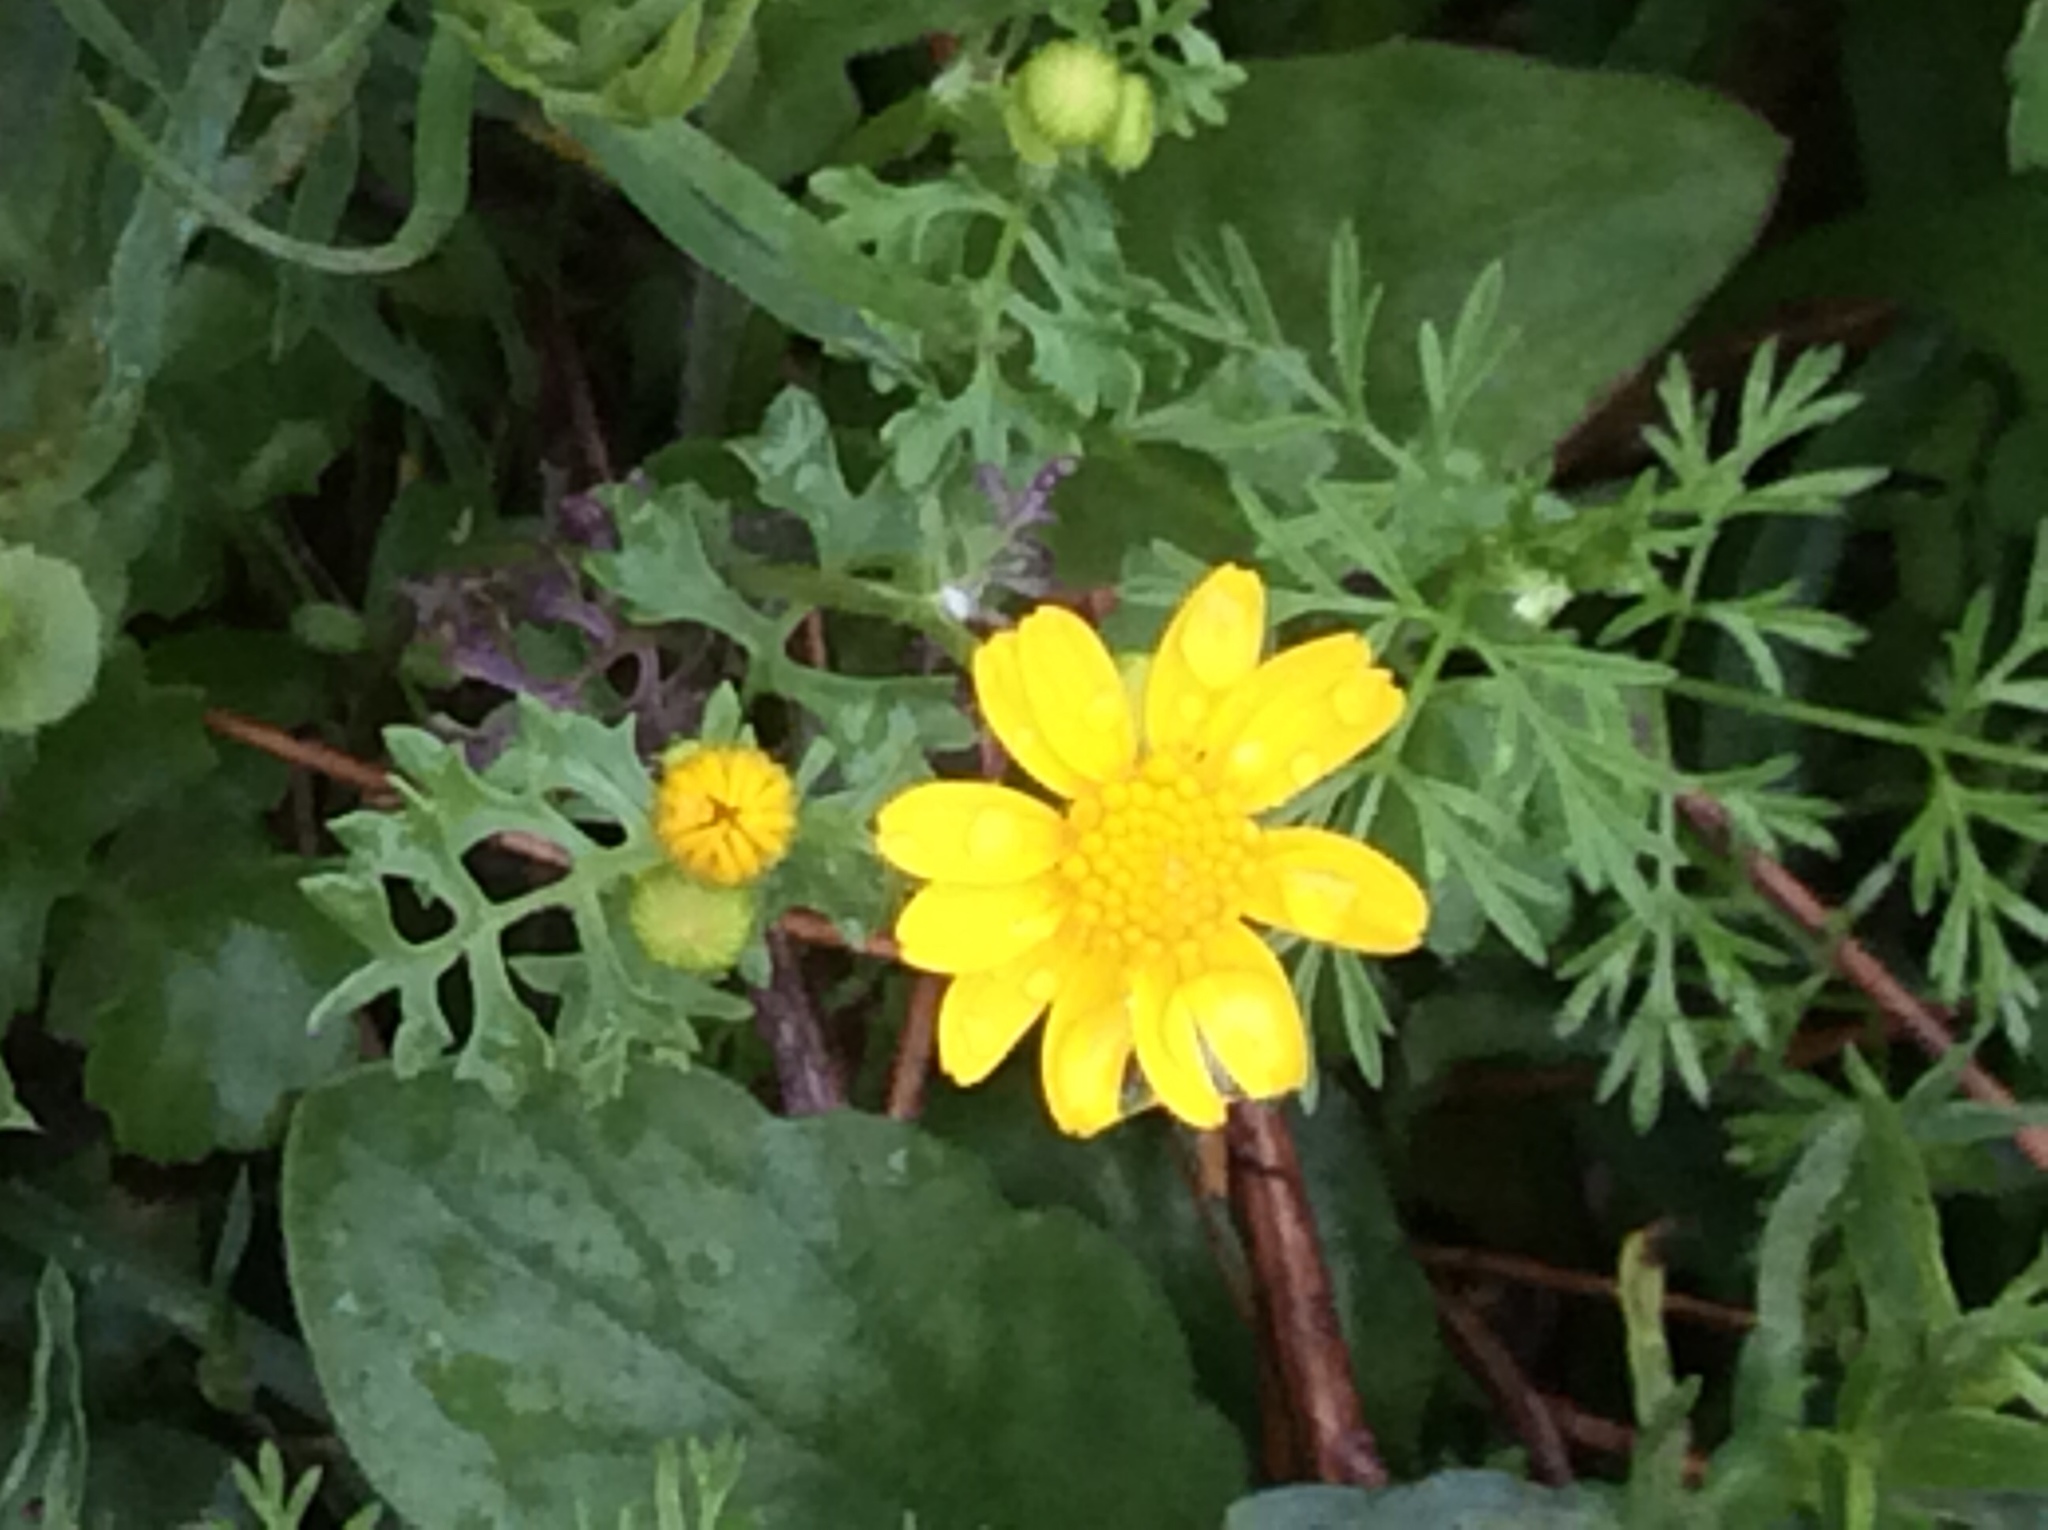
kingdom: Plantae
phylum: Tracheophyta
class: Magnoliopsida
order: Asterales
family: Asteraceae
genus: Packera
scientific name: Packera tampicana
